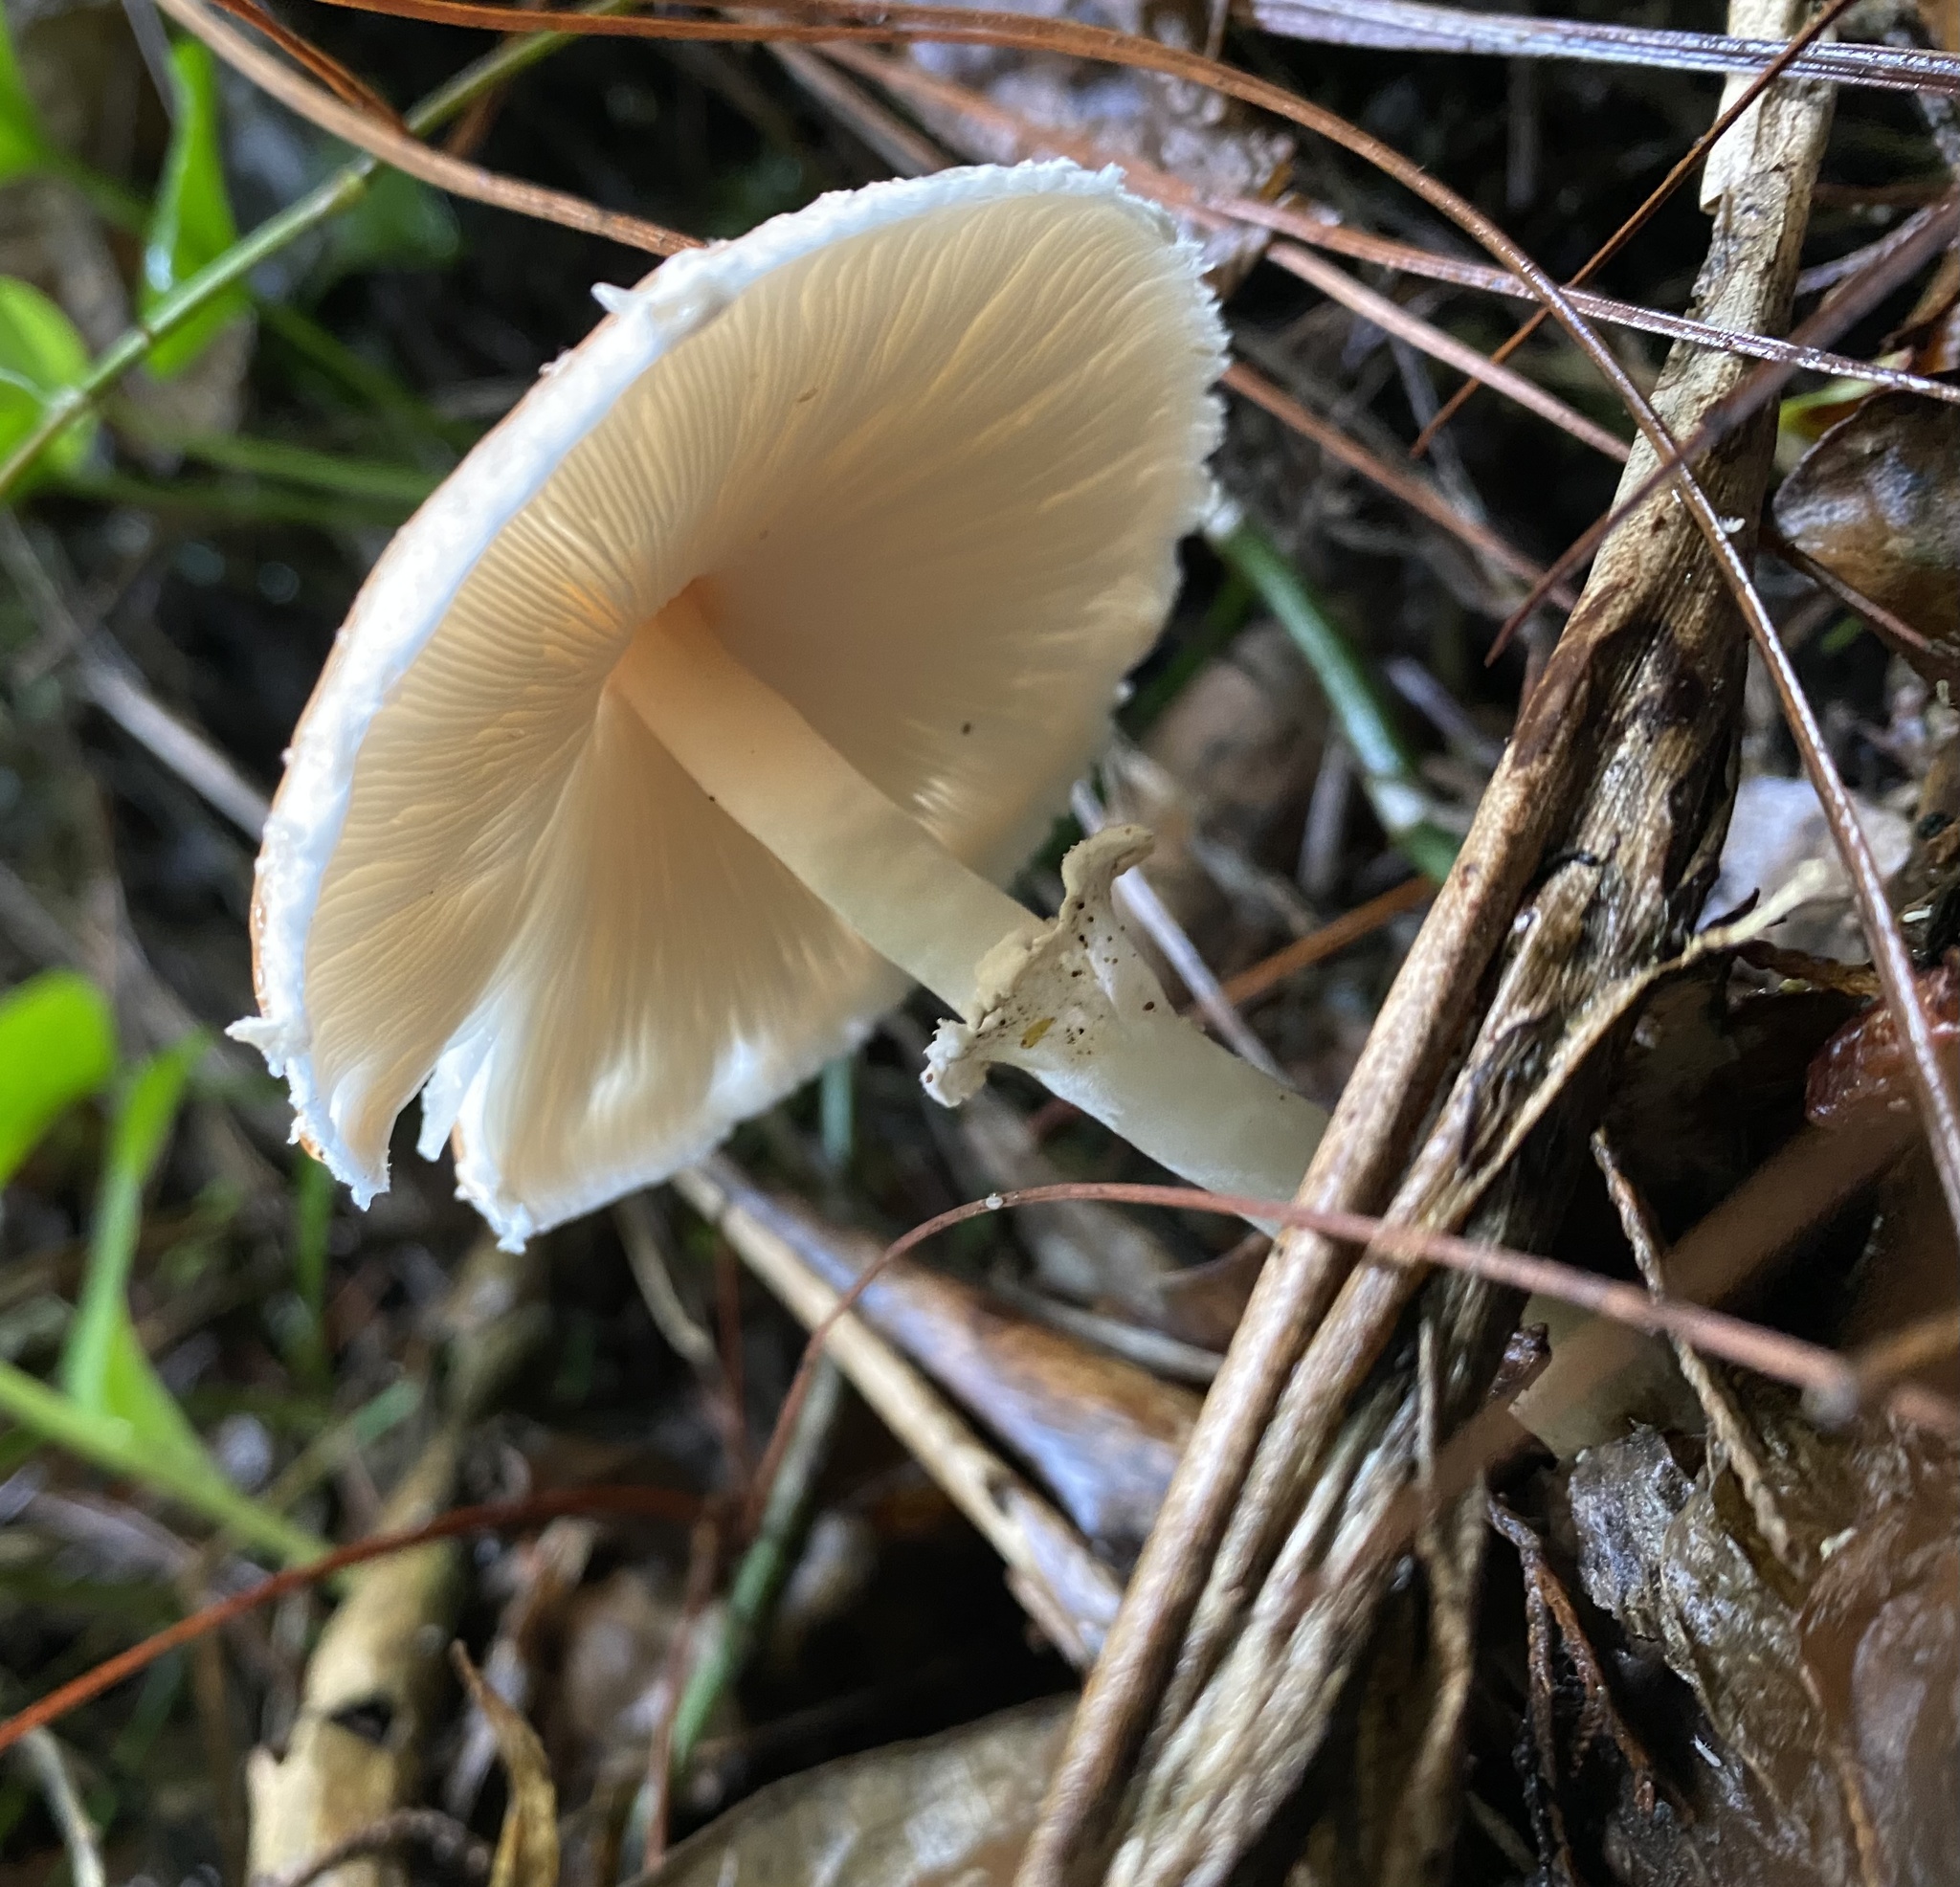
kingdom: Fungi
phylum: Basidiomycota
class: Agaricomycetes
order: Agaricales
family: Agaricaceae
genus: Leucoagaricus
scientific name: Leucoagaricus rubrotinctus
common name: Ruby dapperling
